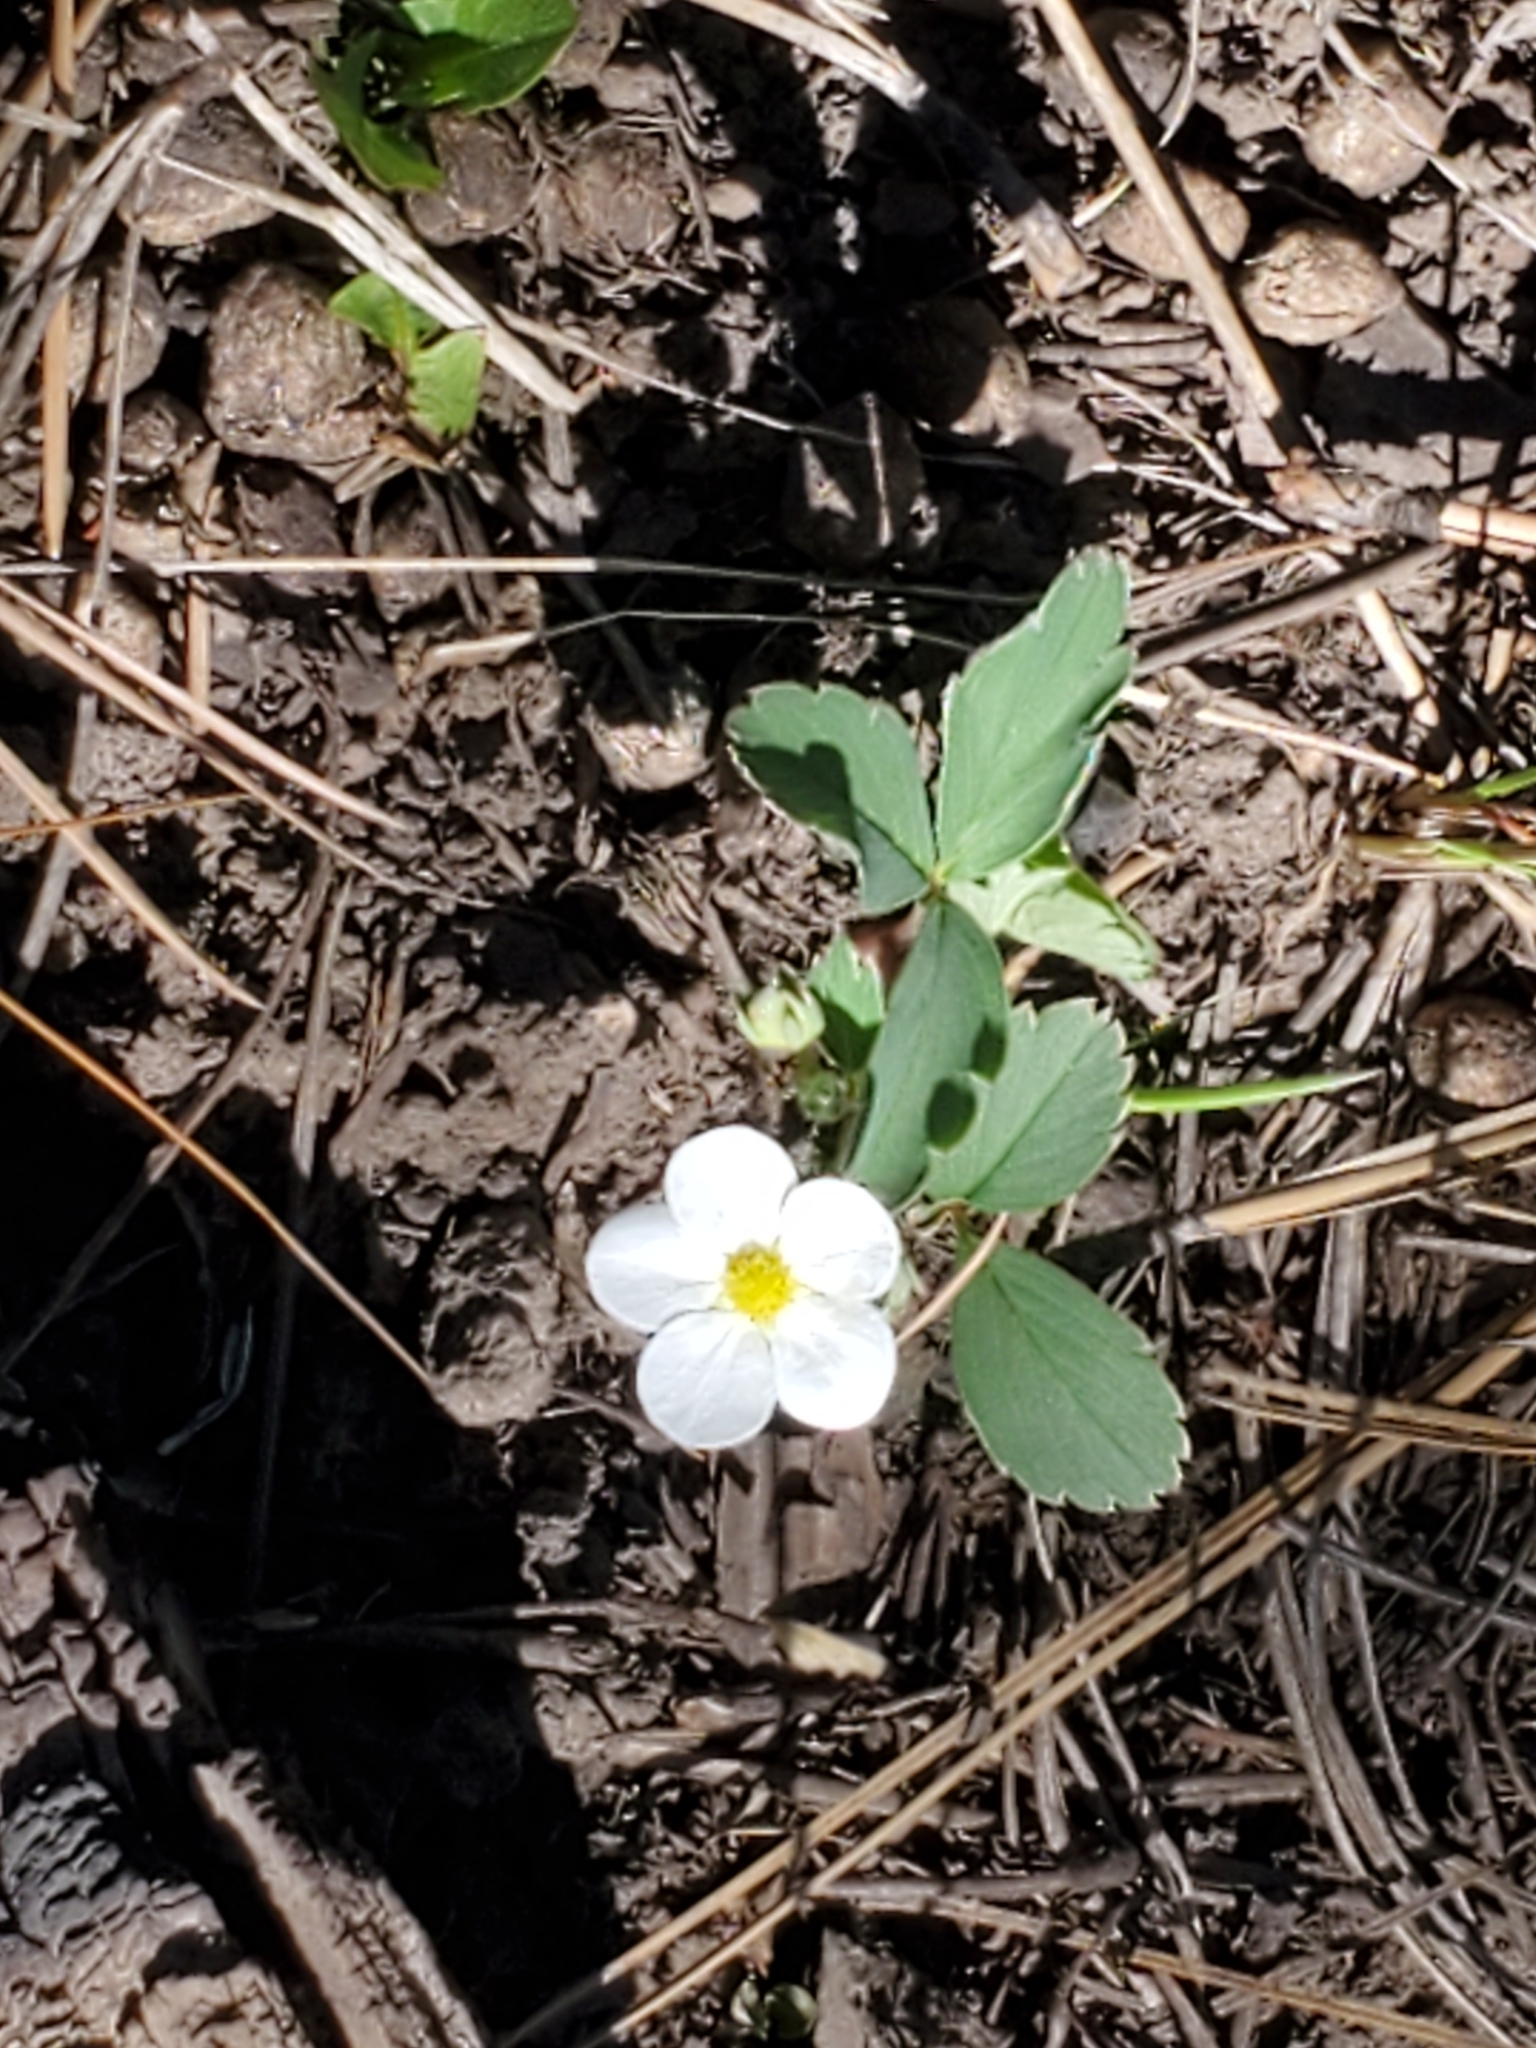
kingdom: Plantae
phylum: Tracheophyta
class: Magnoliopsida
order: Rosales
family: Rosaceae
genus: Fragaria
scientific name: Fragaria virginiana
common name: Thickleaved wild strawberry
